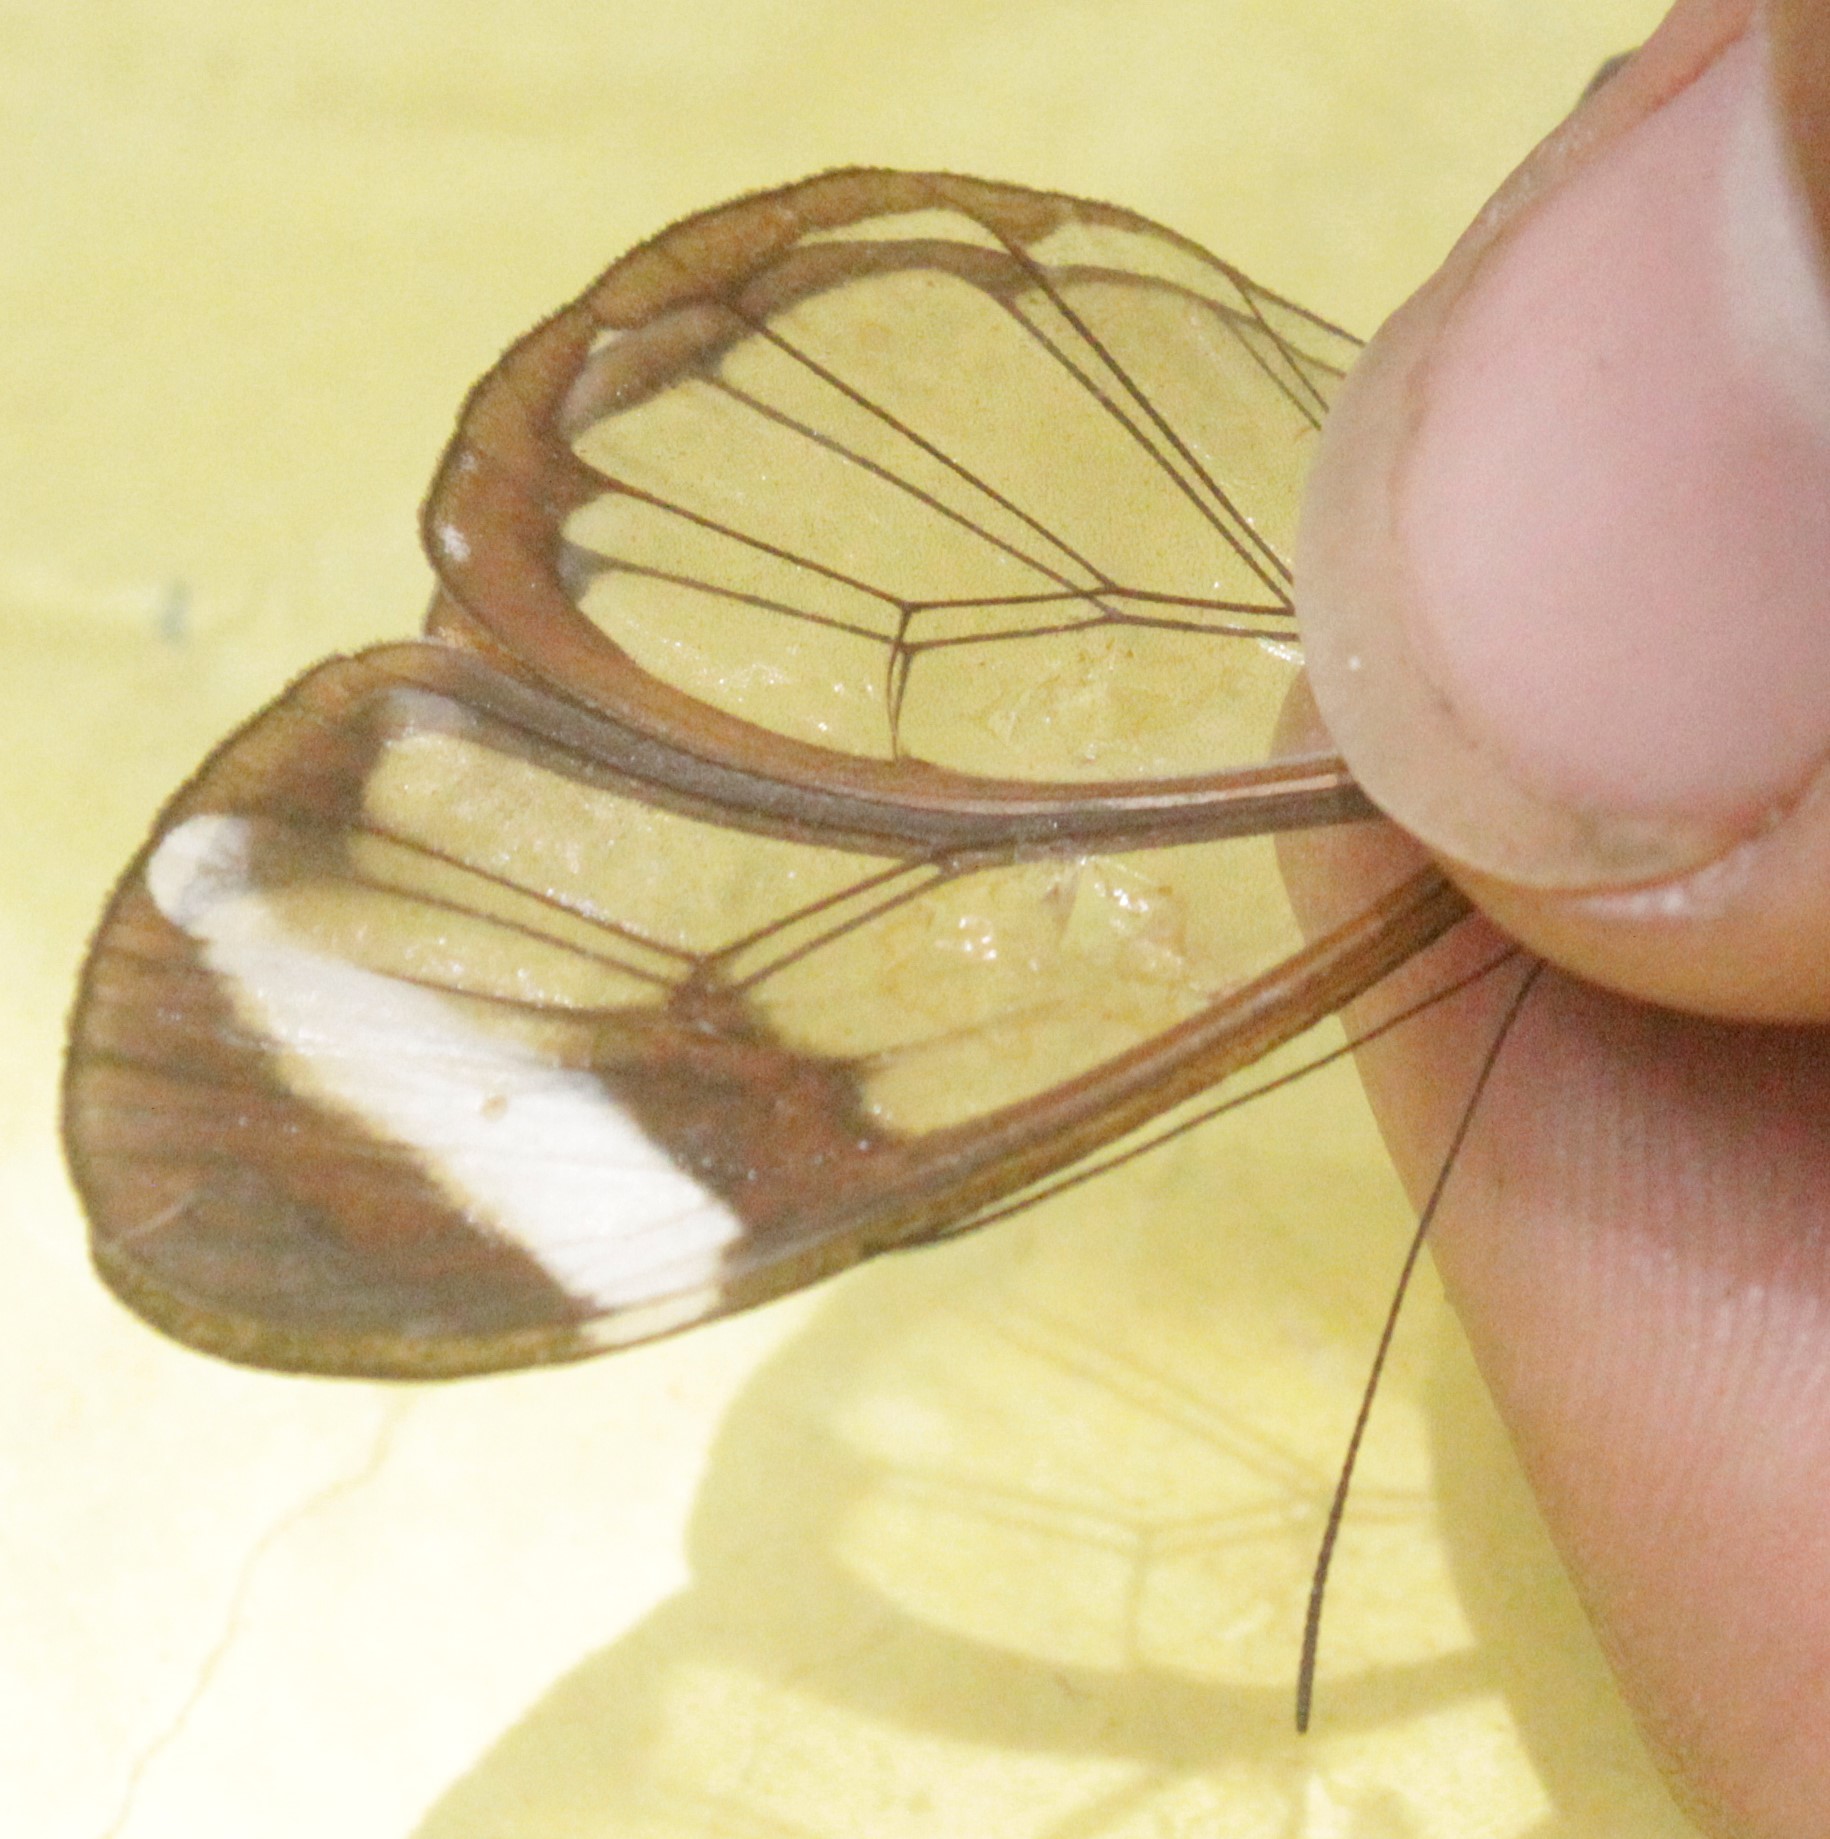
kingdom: Animalia
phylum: Arthropoda
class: Insecta
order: Lepidoptera
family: Nymphalidae
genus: Greta
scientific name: Greta morgane
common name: Thick-tipped greta
